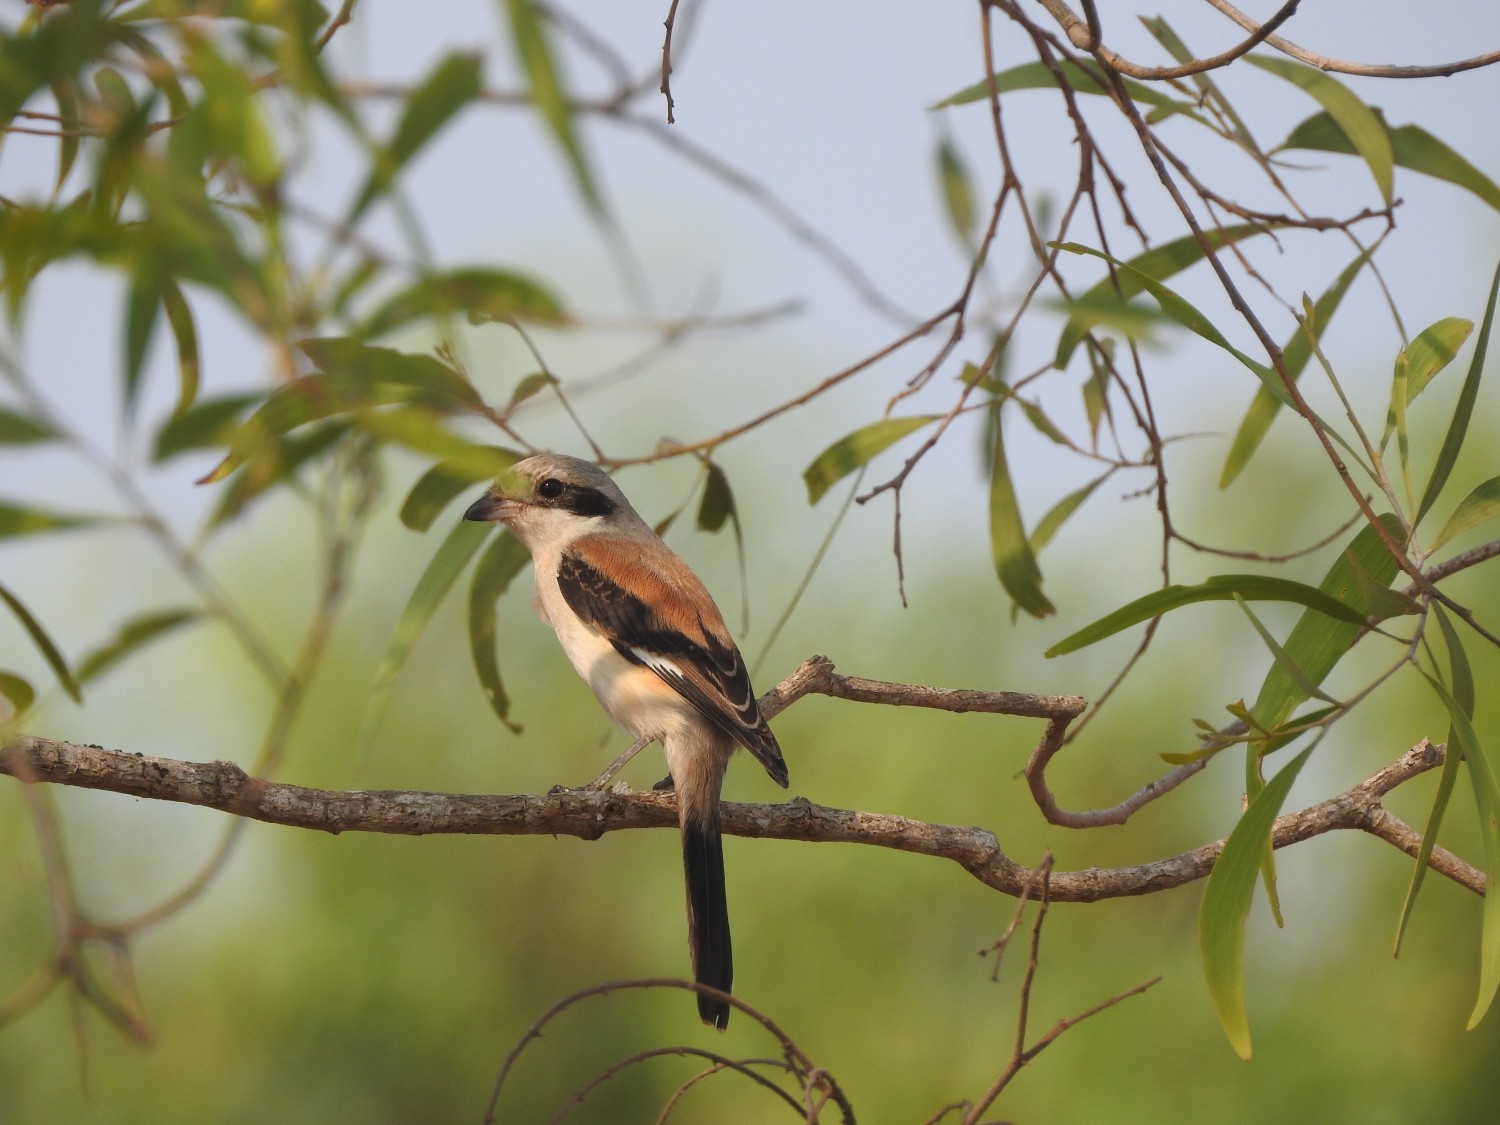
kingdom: Animalia
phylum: Chordata
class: Aves
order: Passeriformes
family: Laniidae
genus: Lanius
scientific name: Lanius schach
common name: Long-tailed shrike
